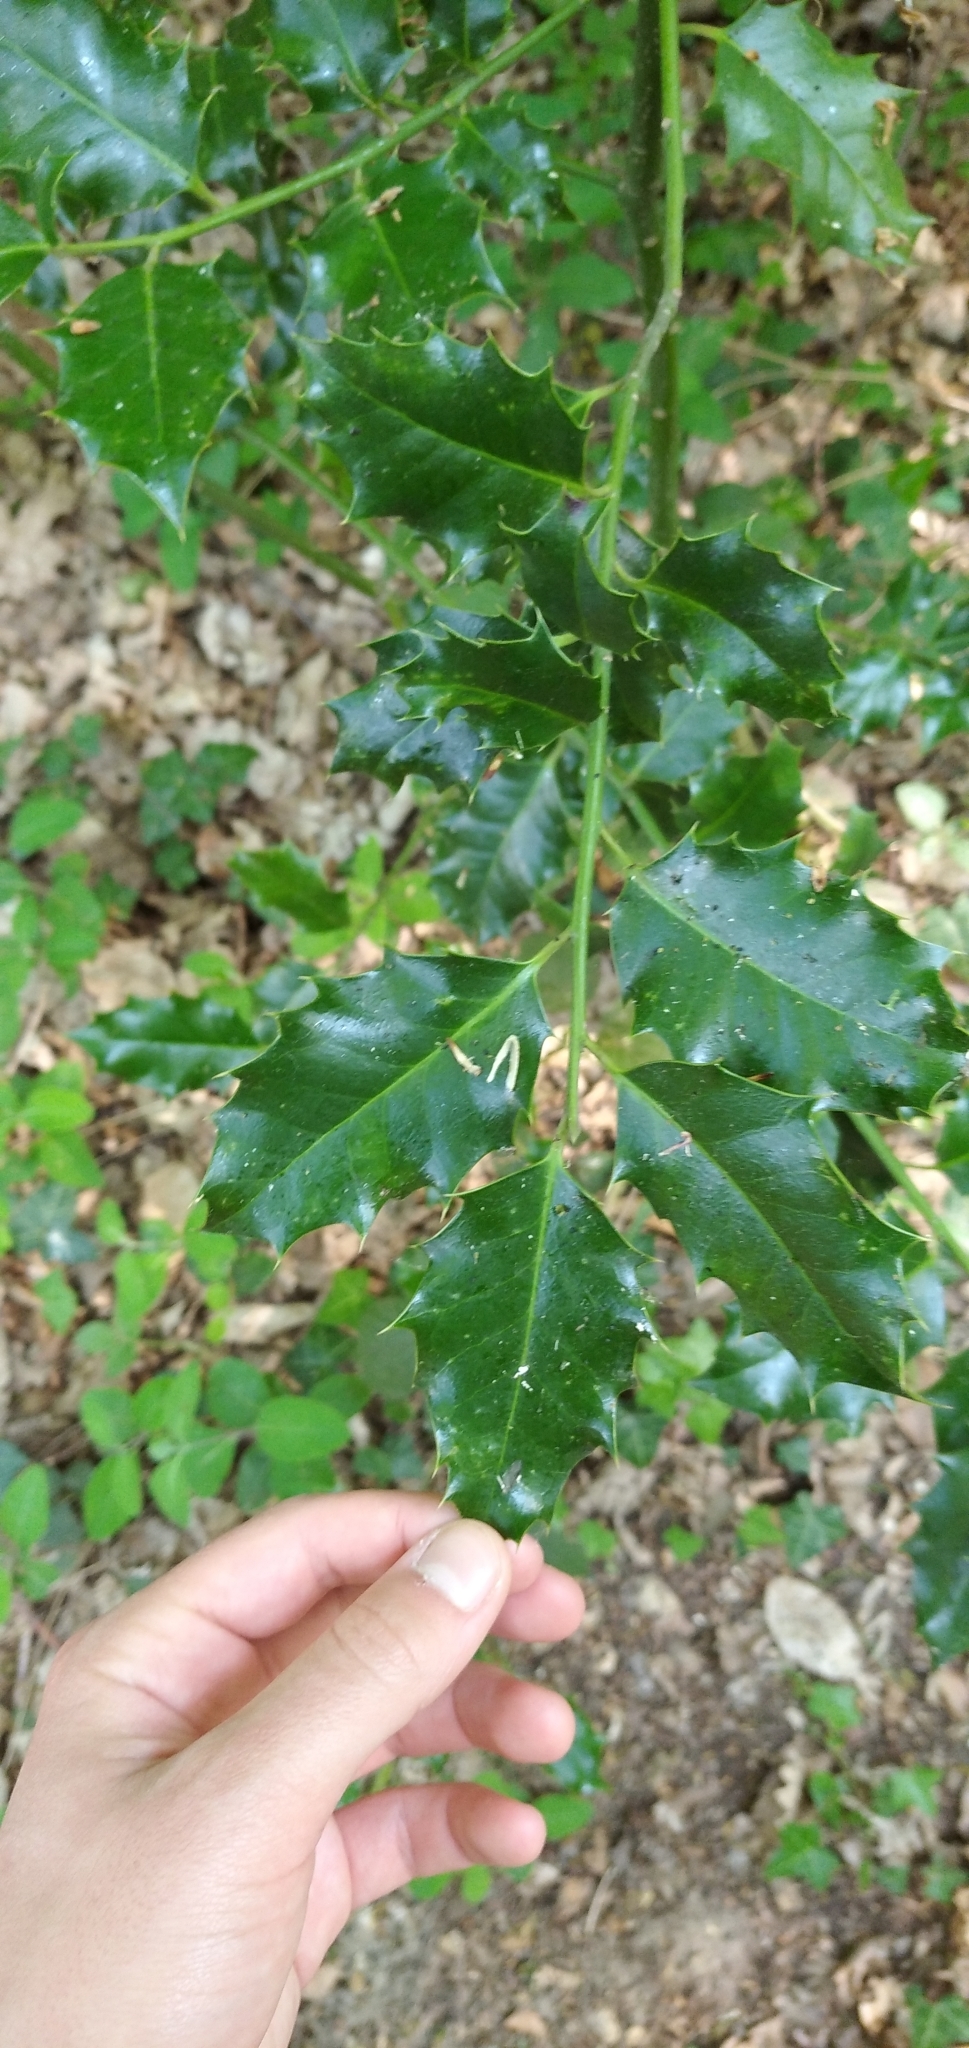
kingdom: Plantae
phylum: Tracheophyta
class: Magnoliopsida
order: Aquifoliales
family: Aquifoliaceae
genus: Ilex
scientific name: Ilex aquifolium
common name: English holly
